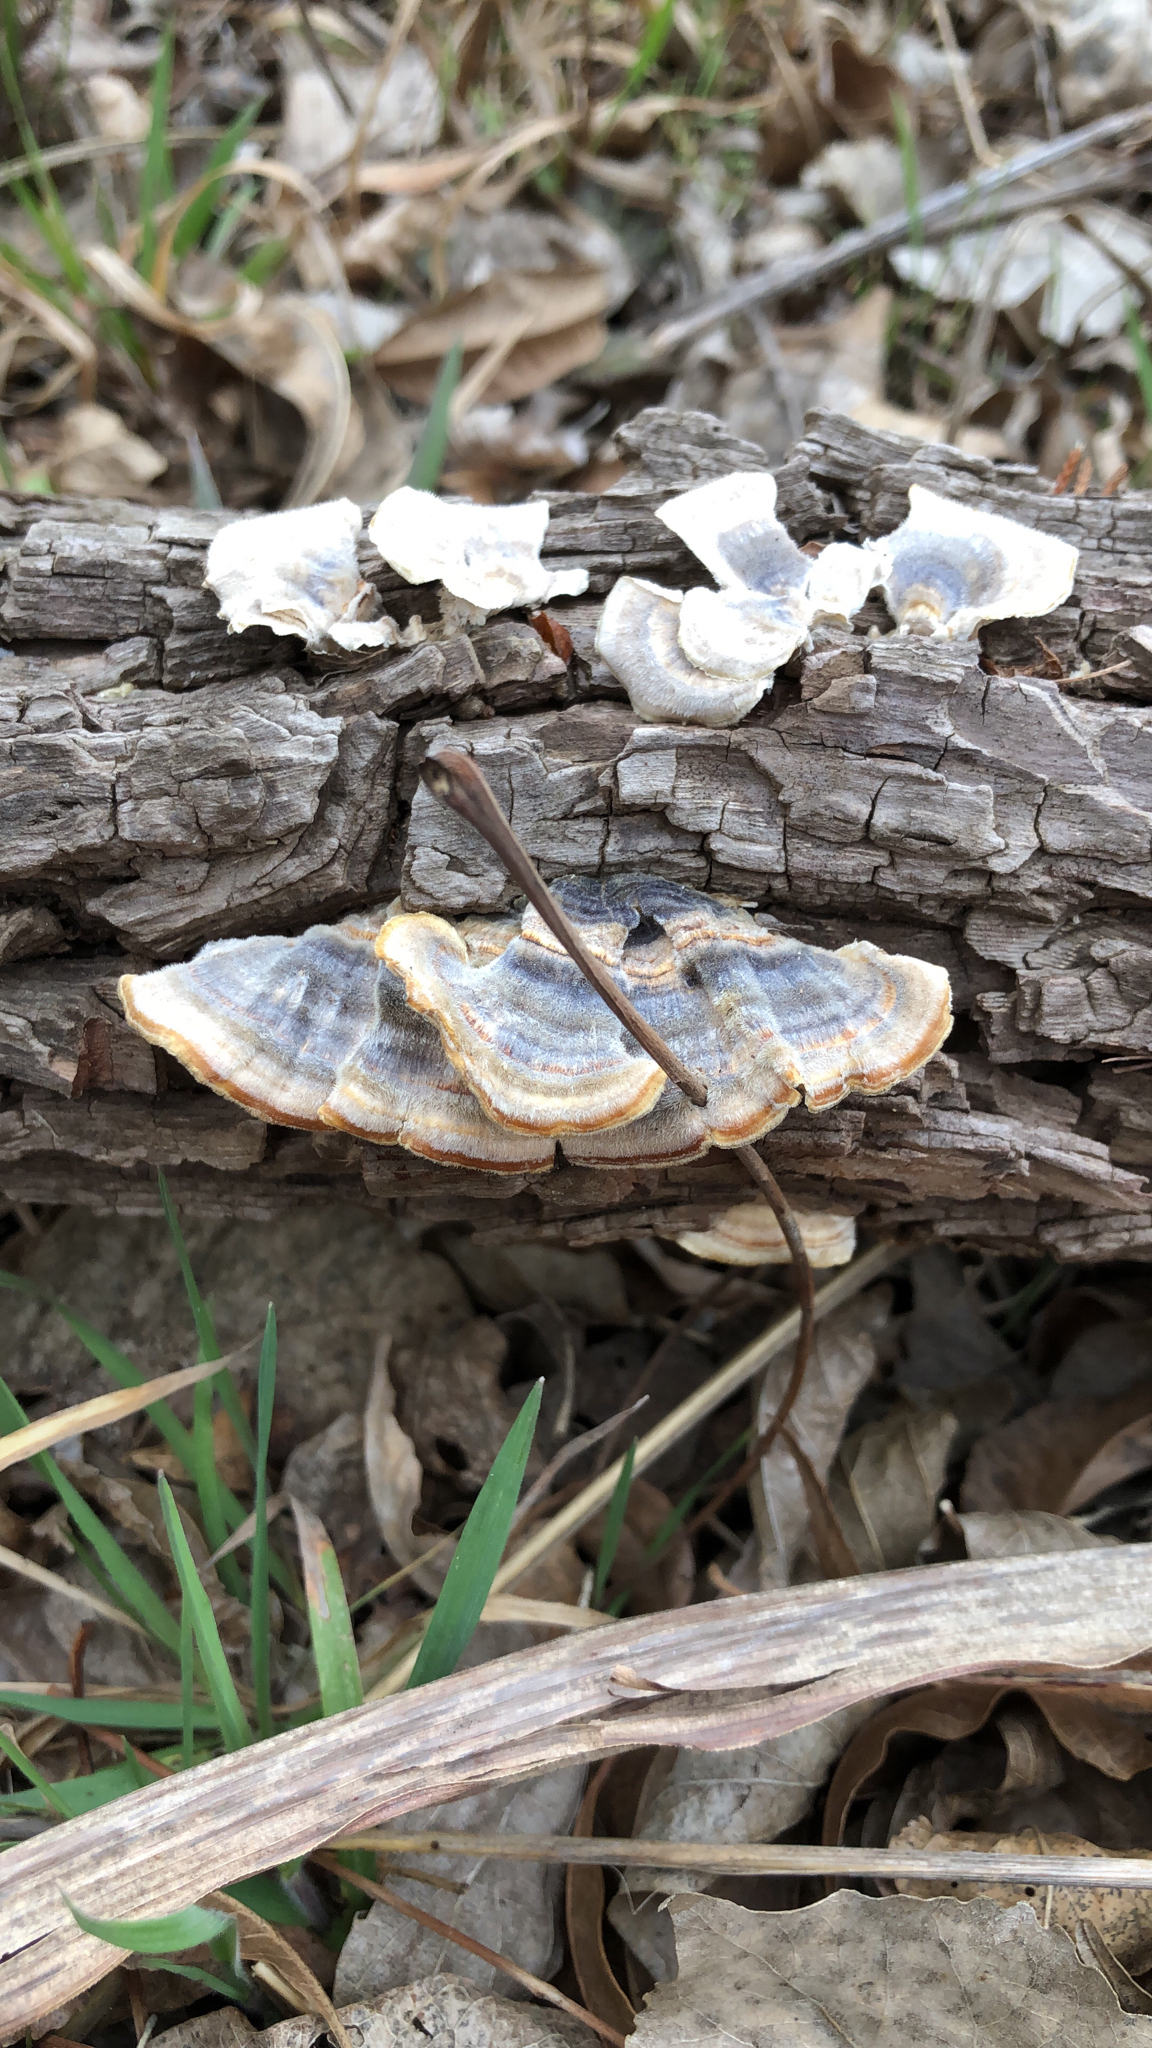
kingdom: Fungi
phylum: Basidiomycota
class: Agaricomycetes
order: Polyporales
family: Polyporaceae
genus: Trametes
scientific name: Trametes versicolor
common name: Turkeytail
